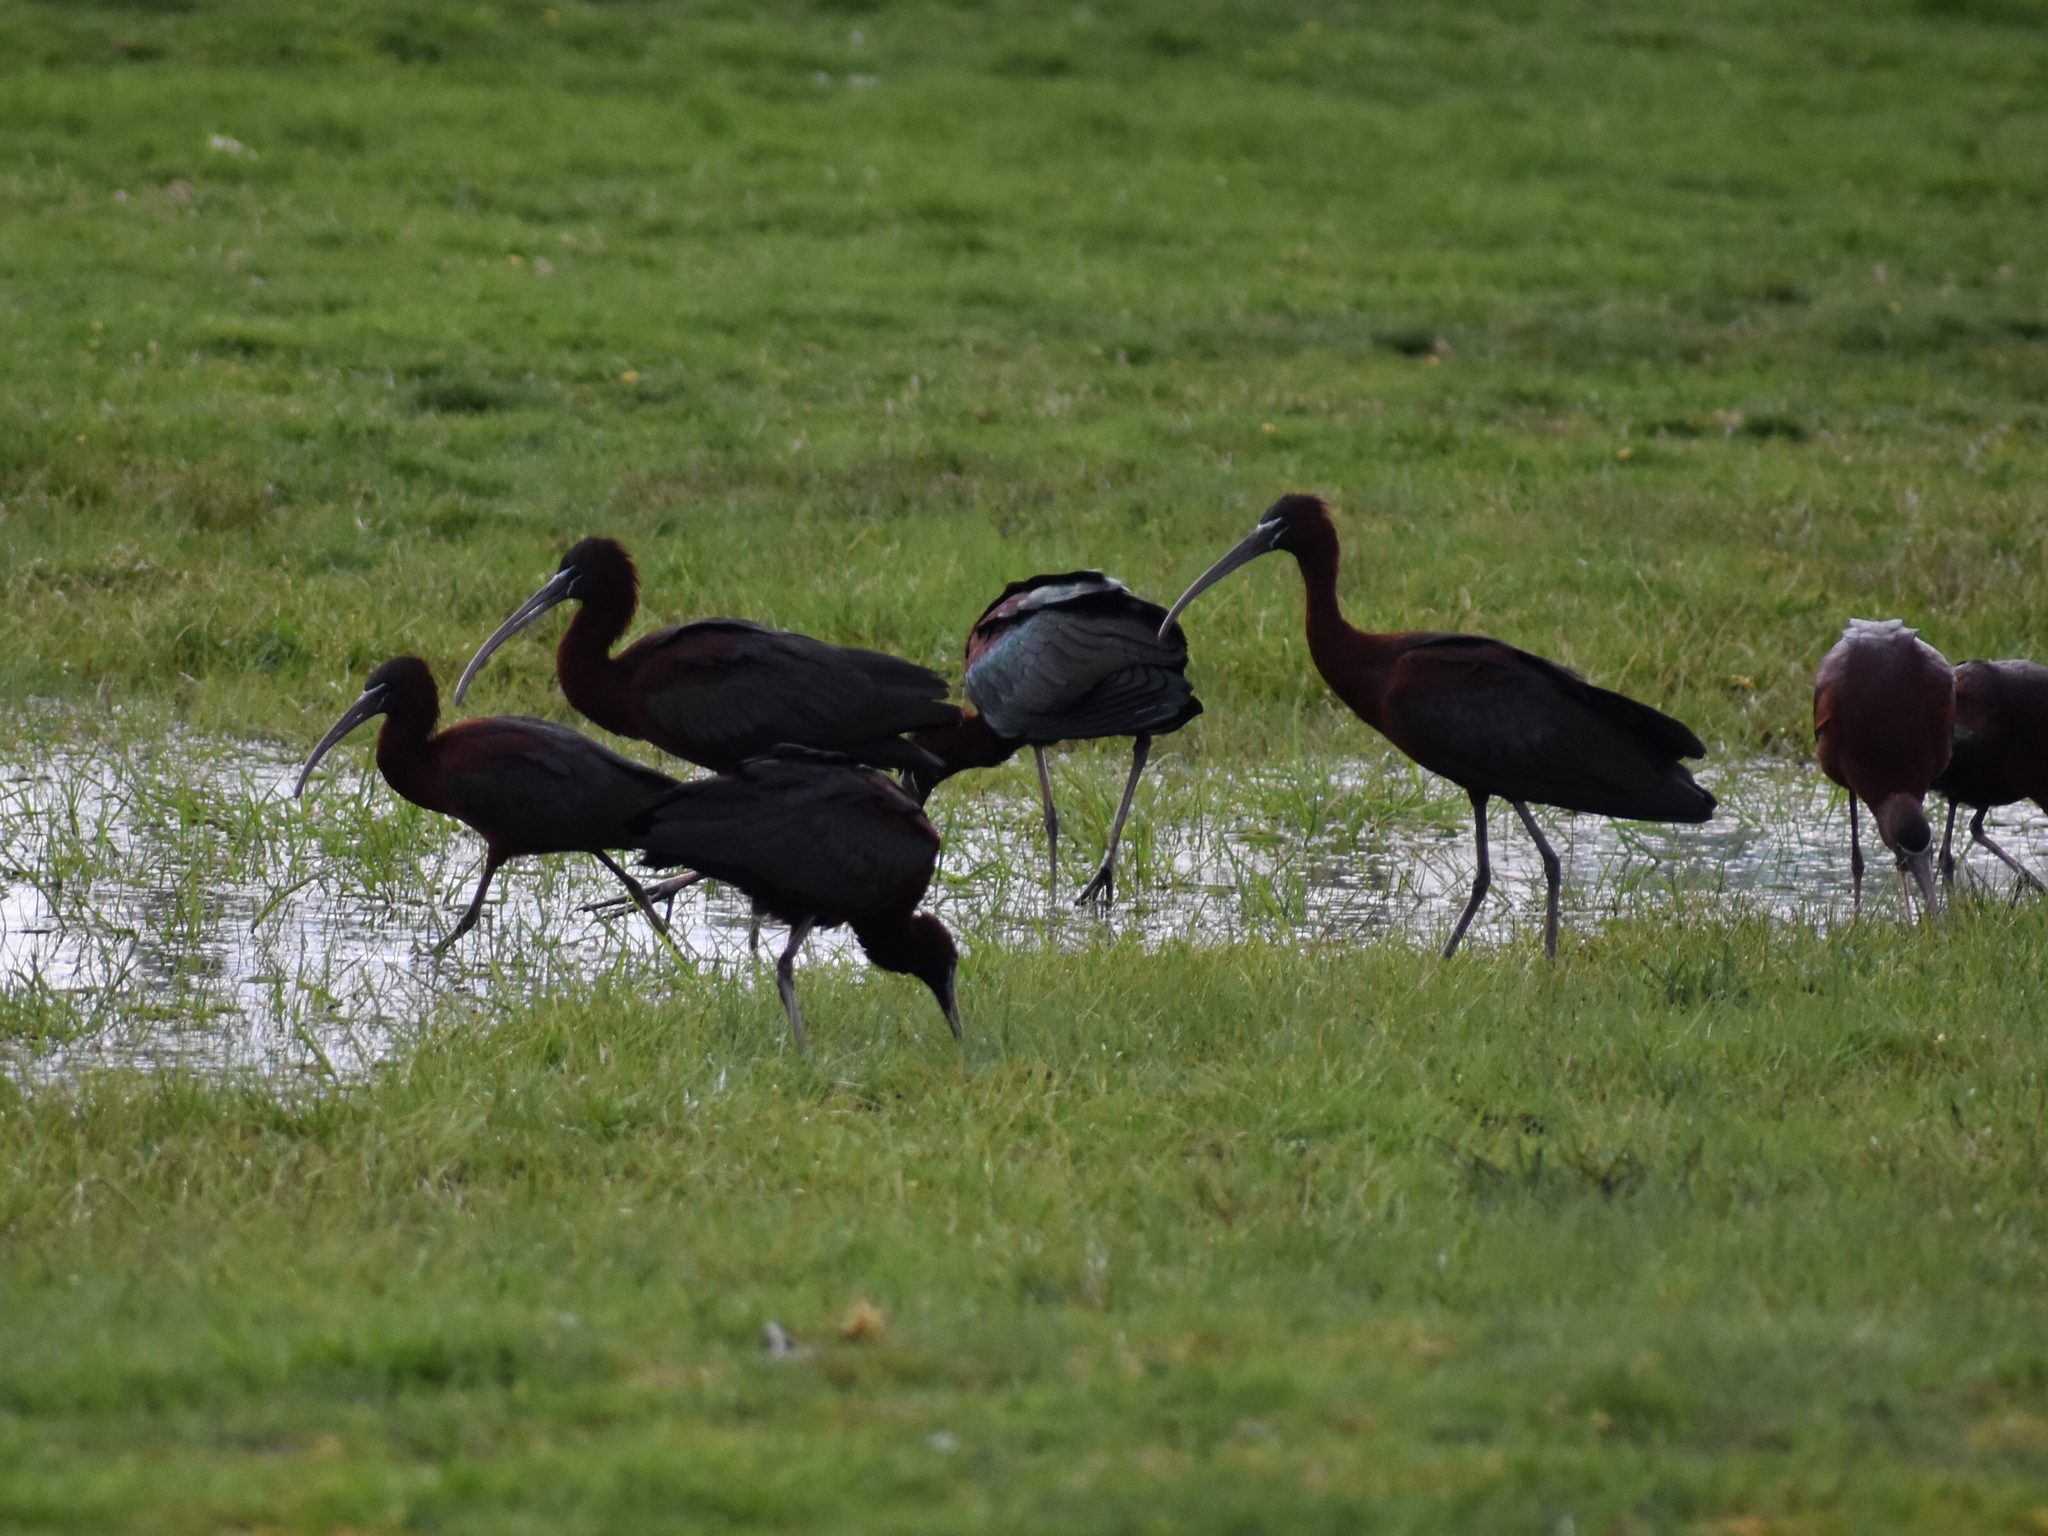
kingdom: Animalia
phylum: Chordata
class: Aves
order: Pelecaniformes
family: Threskiornithidae
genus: Plegadis
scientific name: Plegadis falcinellus
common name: Glossy ibis
